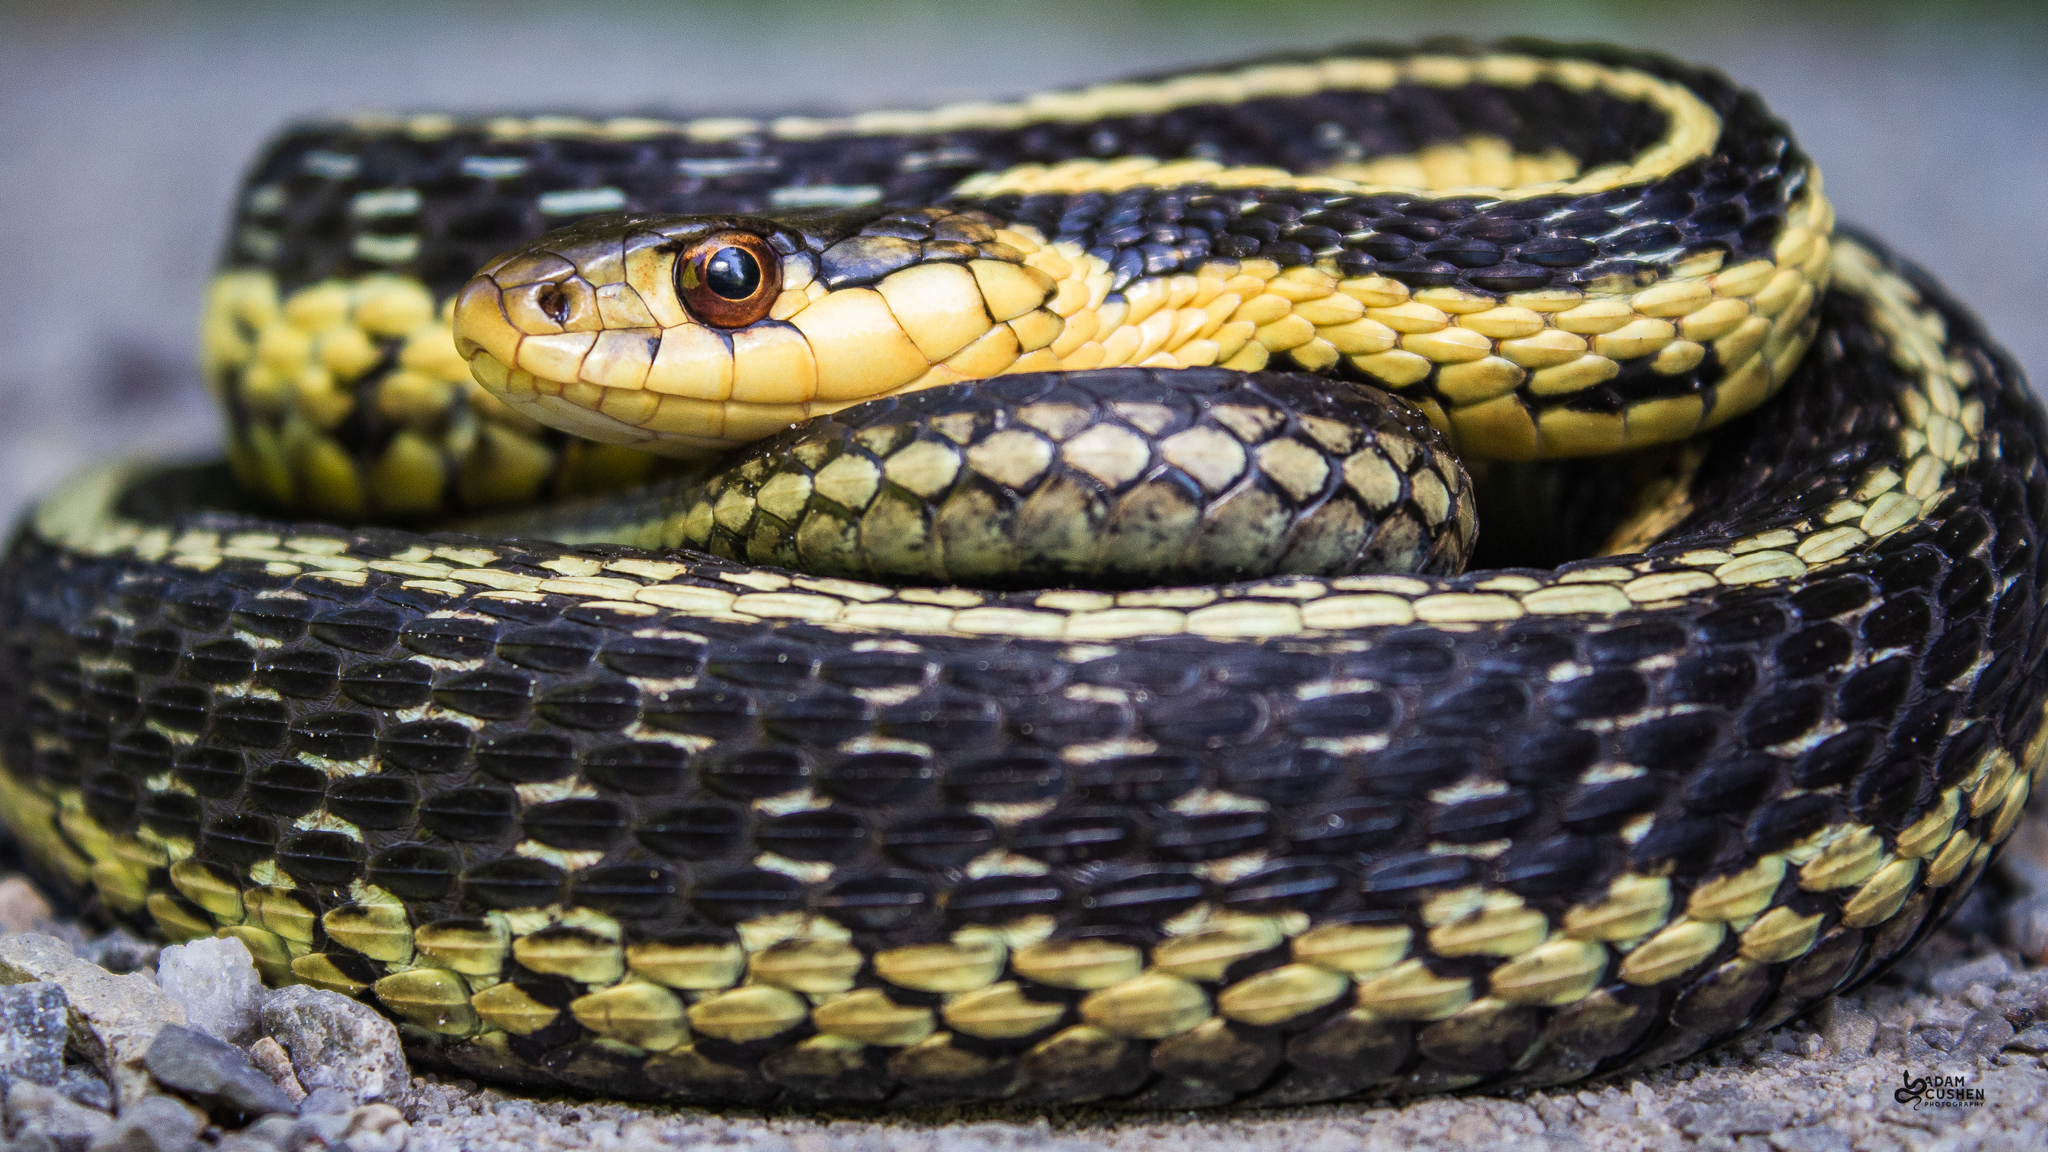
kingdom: Animalia
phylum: Chordata
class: Squamata
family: Colubridae
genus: Thamnophis
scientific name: Thamnophis sirtalis
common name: Common garter snake
